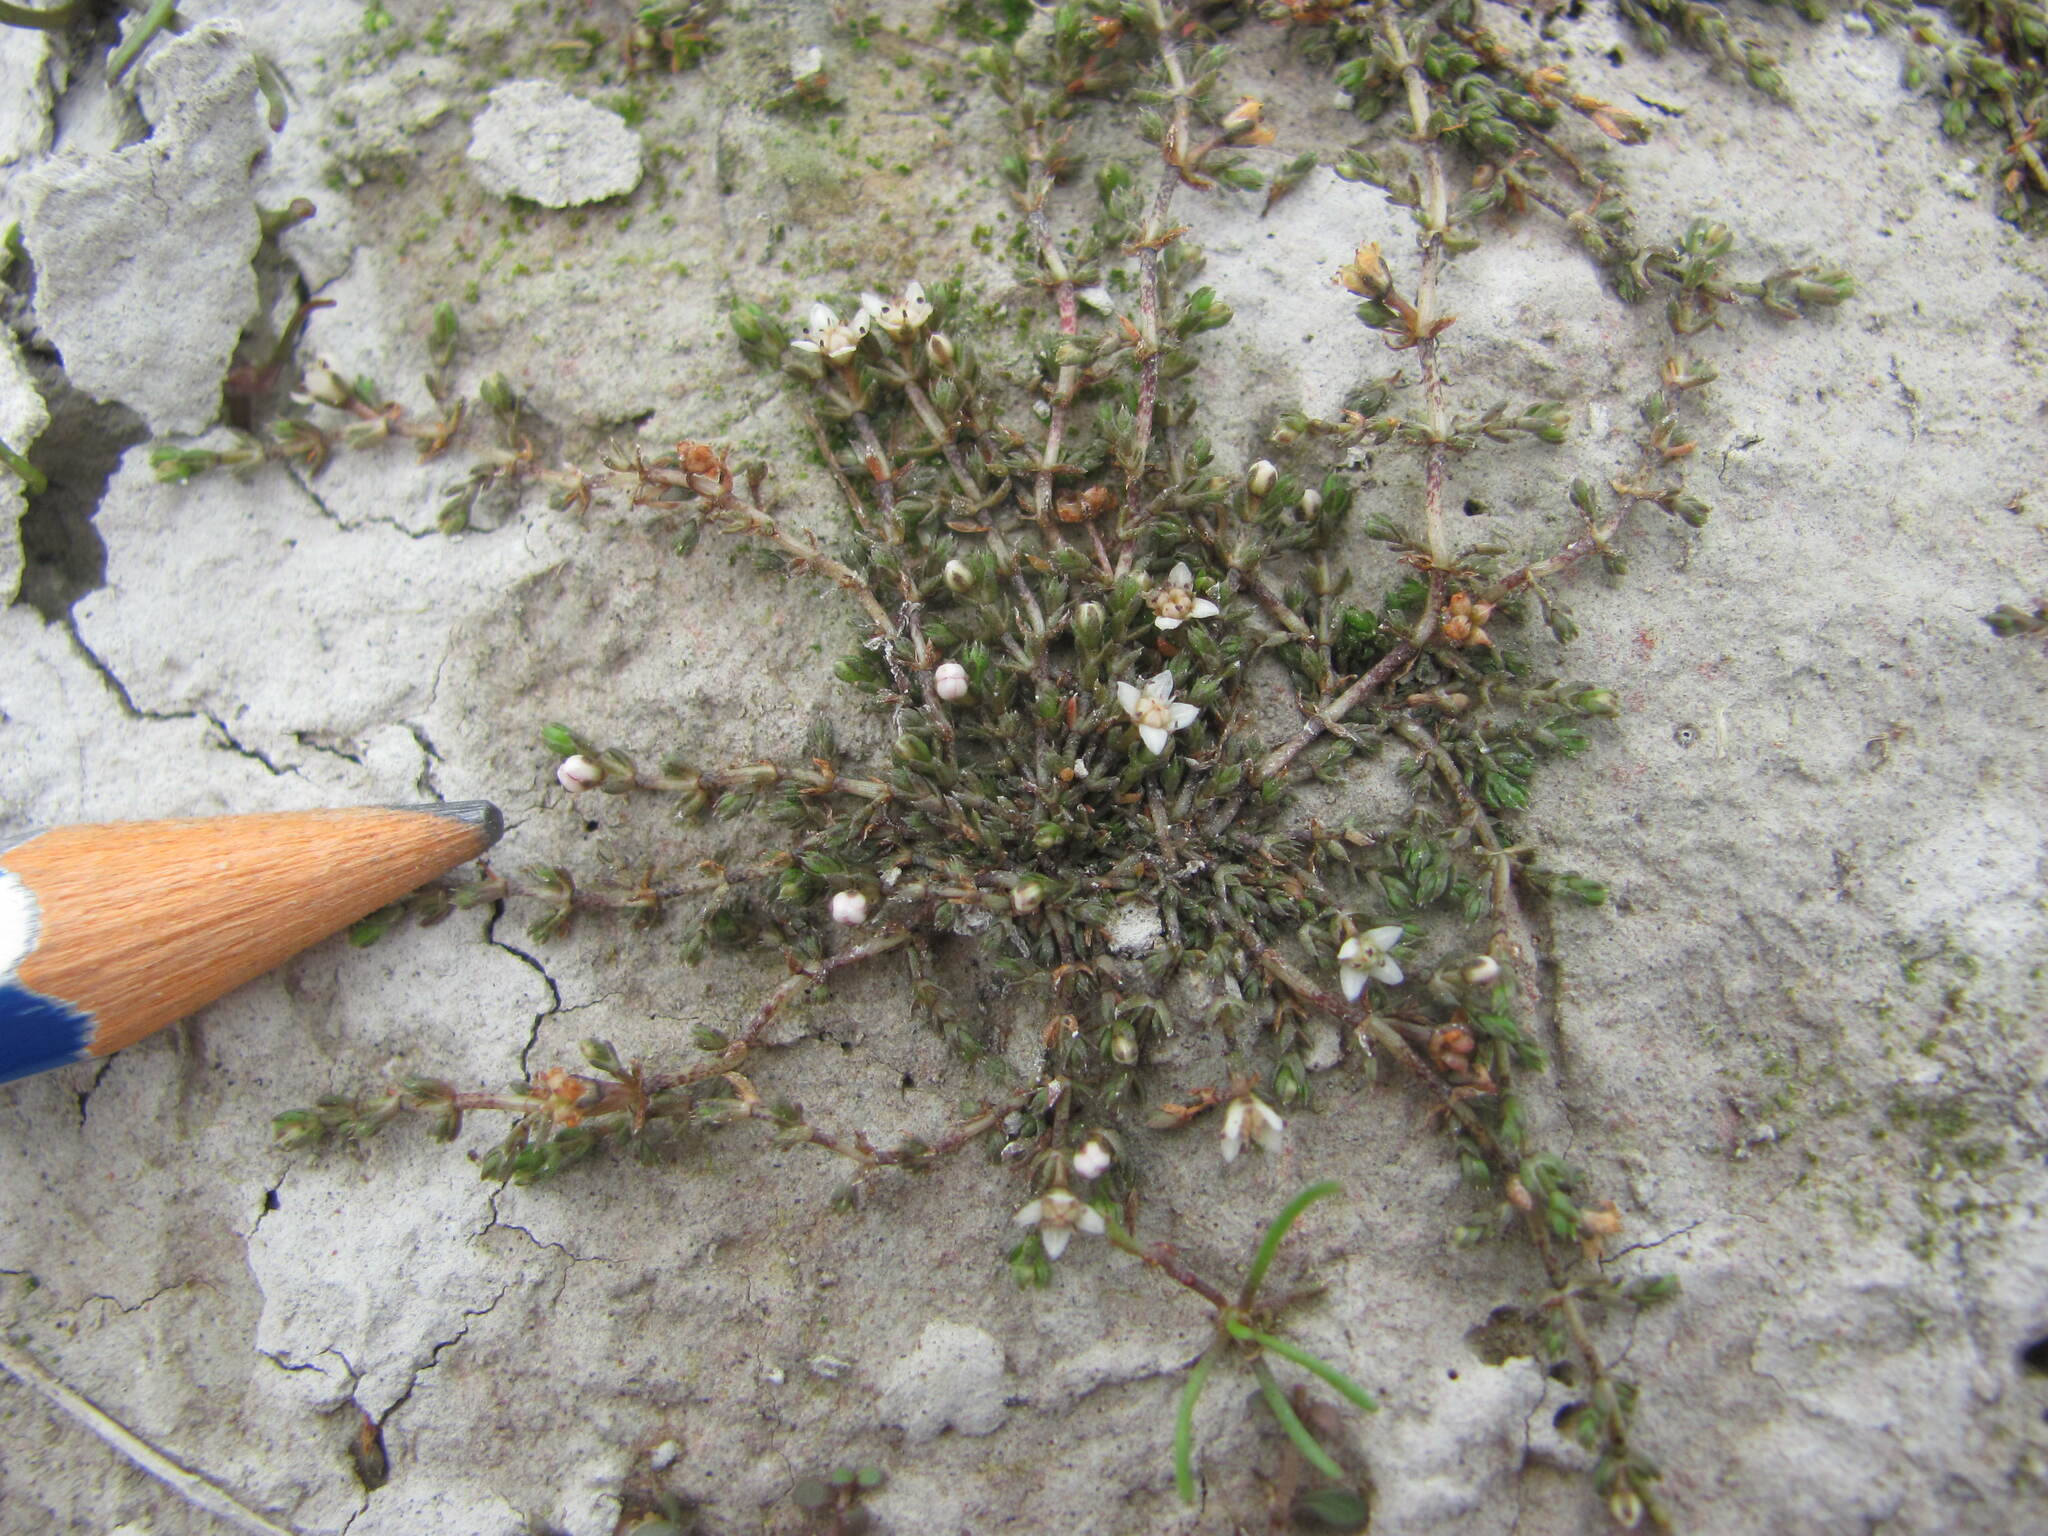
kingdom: Plantae
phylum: Tracheophyta
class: Magnoliopsida
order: Saxifragales
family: Crassulaceae
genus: Crassula
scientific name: Crassula sinclairii
